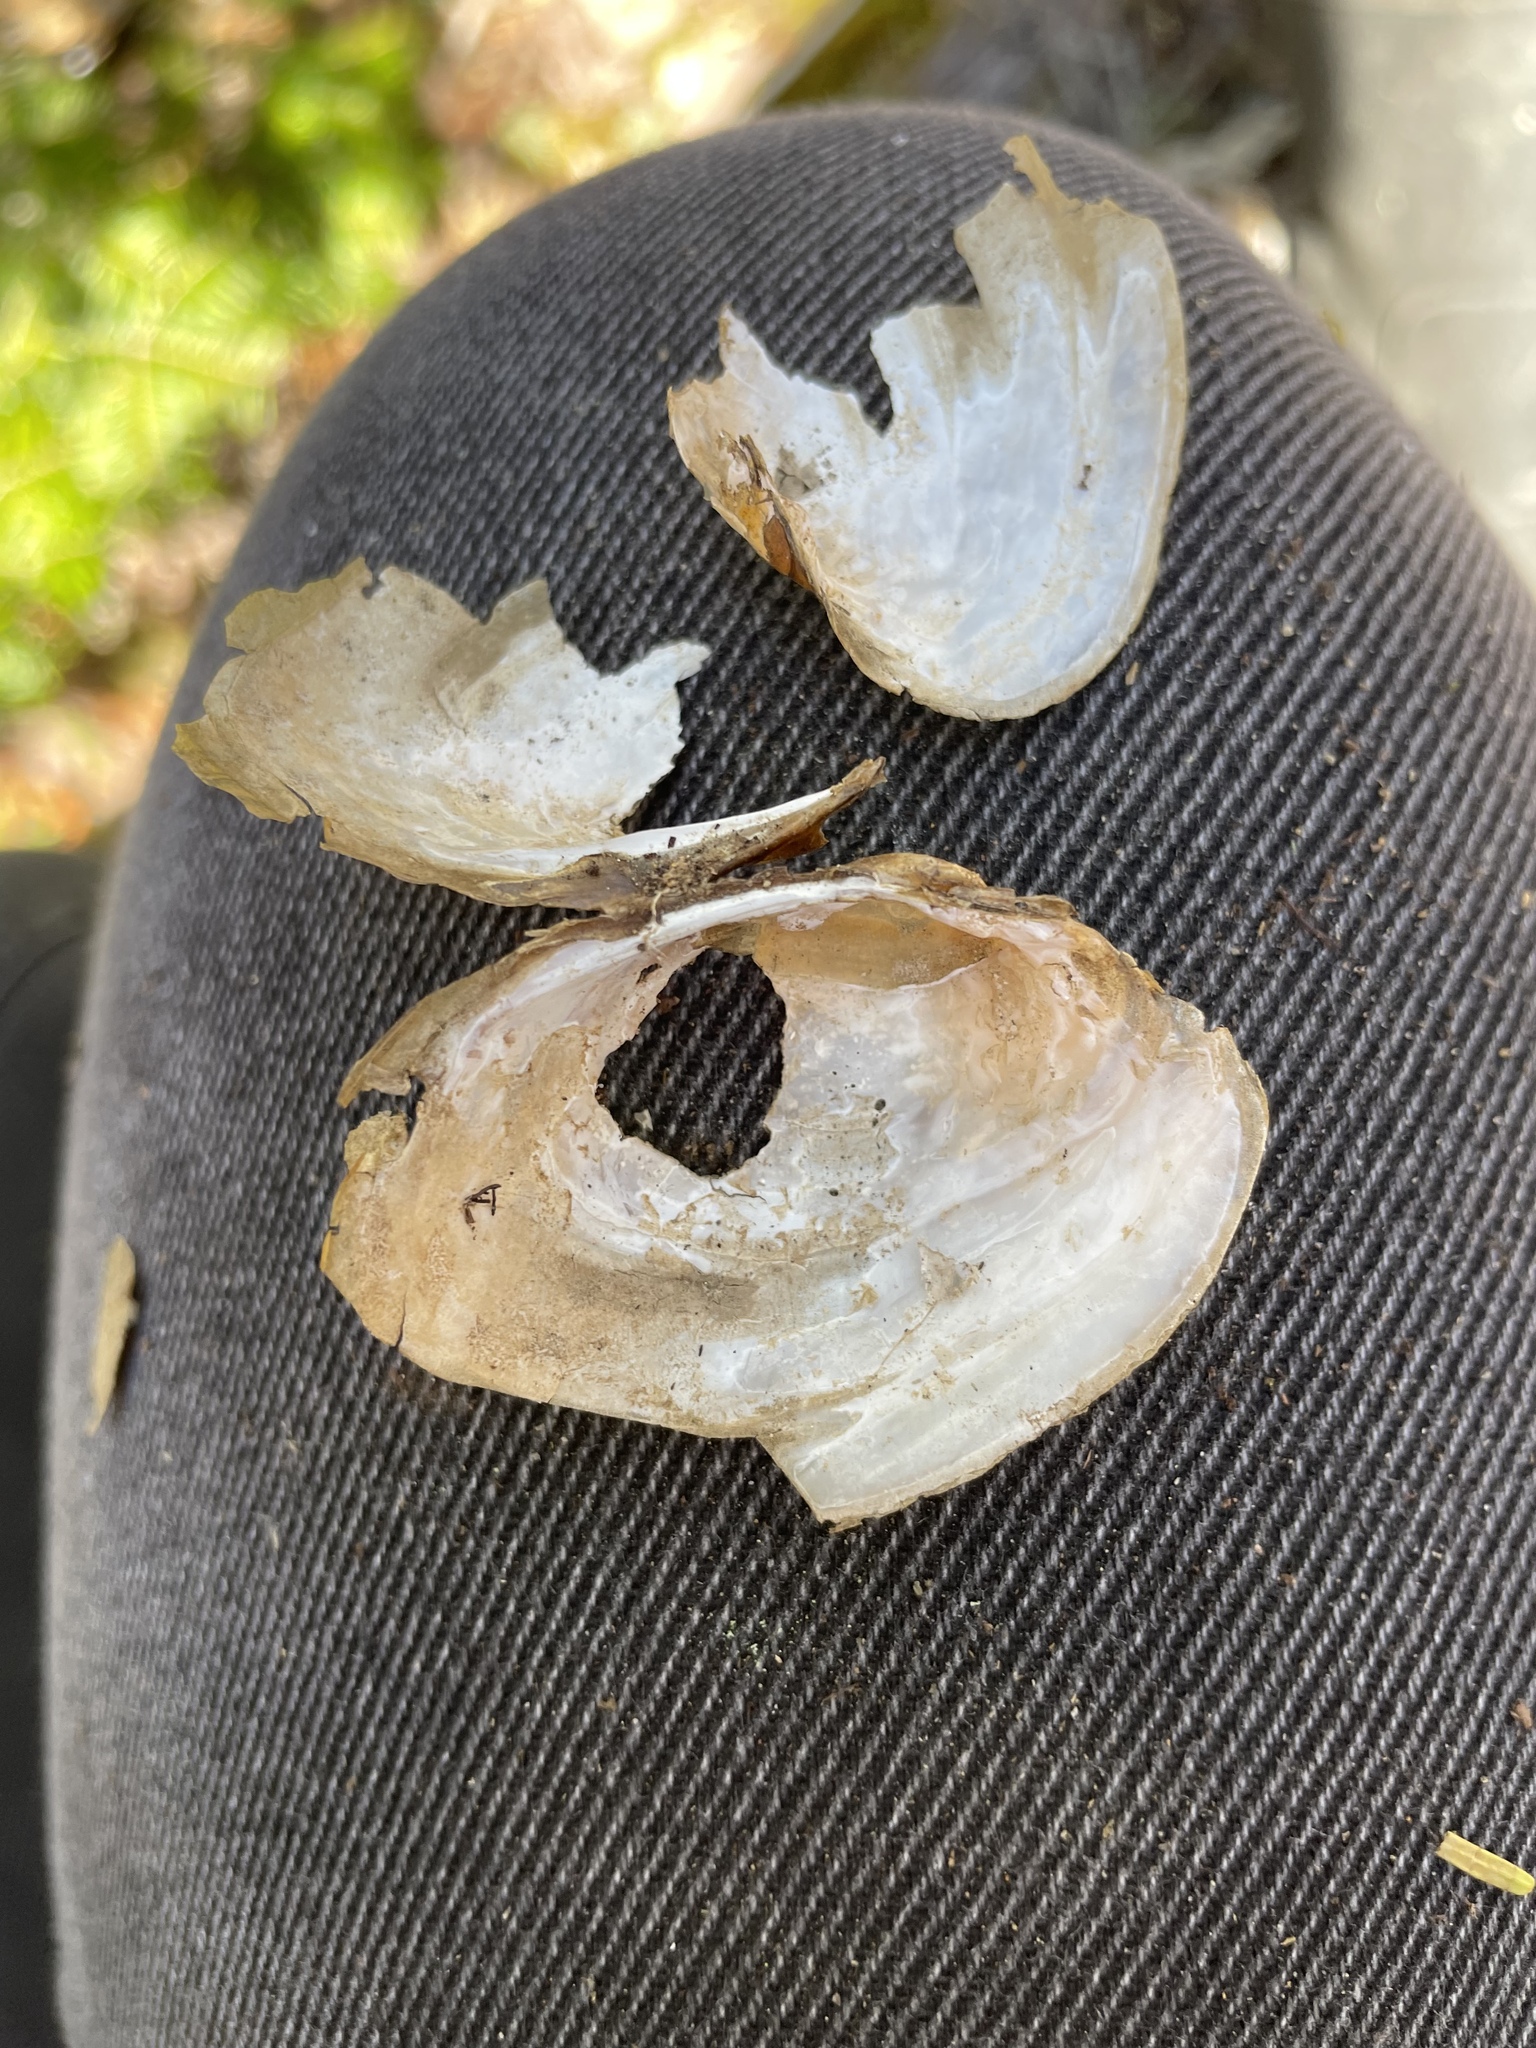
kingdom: Animalia
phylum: Mollusca
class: Bivalvia
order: Unionida
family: Unionidae
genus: Lampsilis
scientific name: Lampsilis cariosa
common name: Yellow lampmussel
